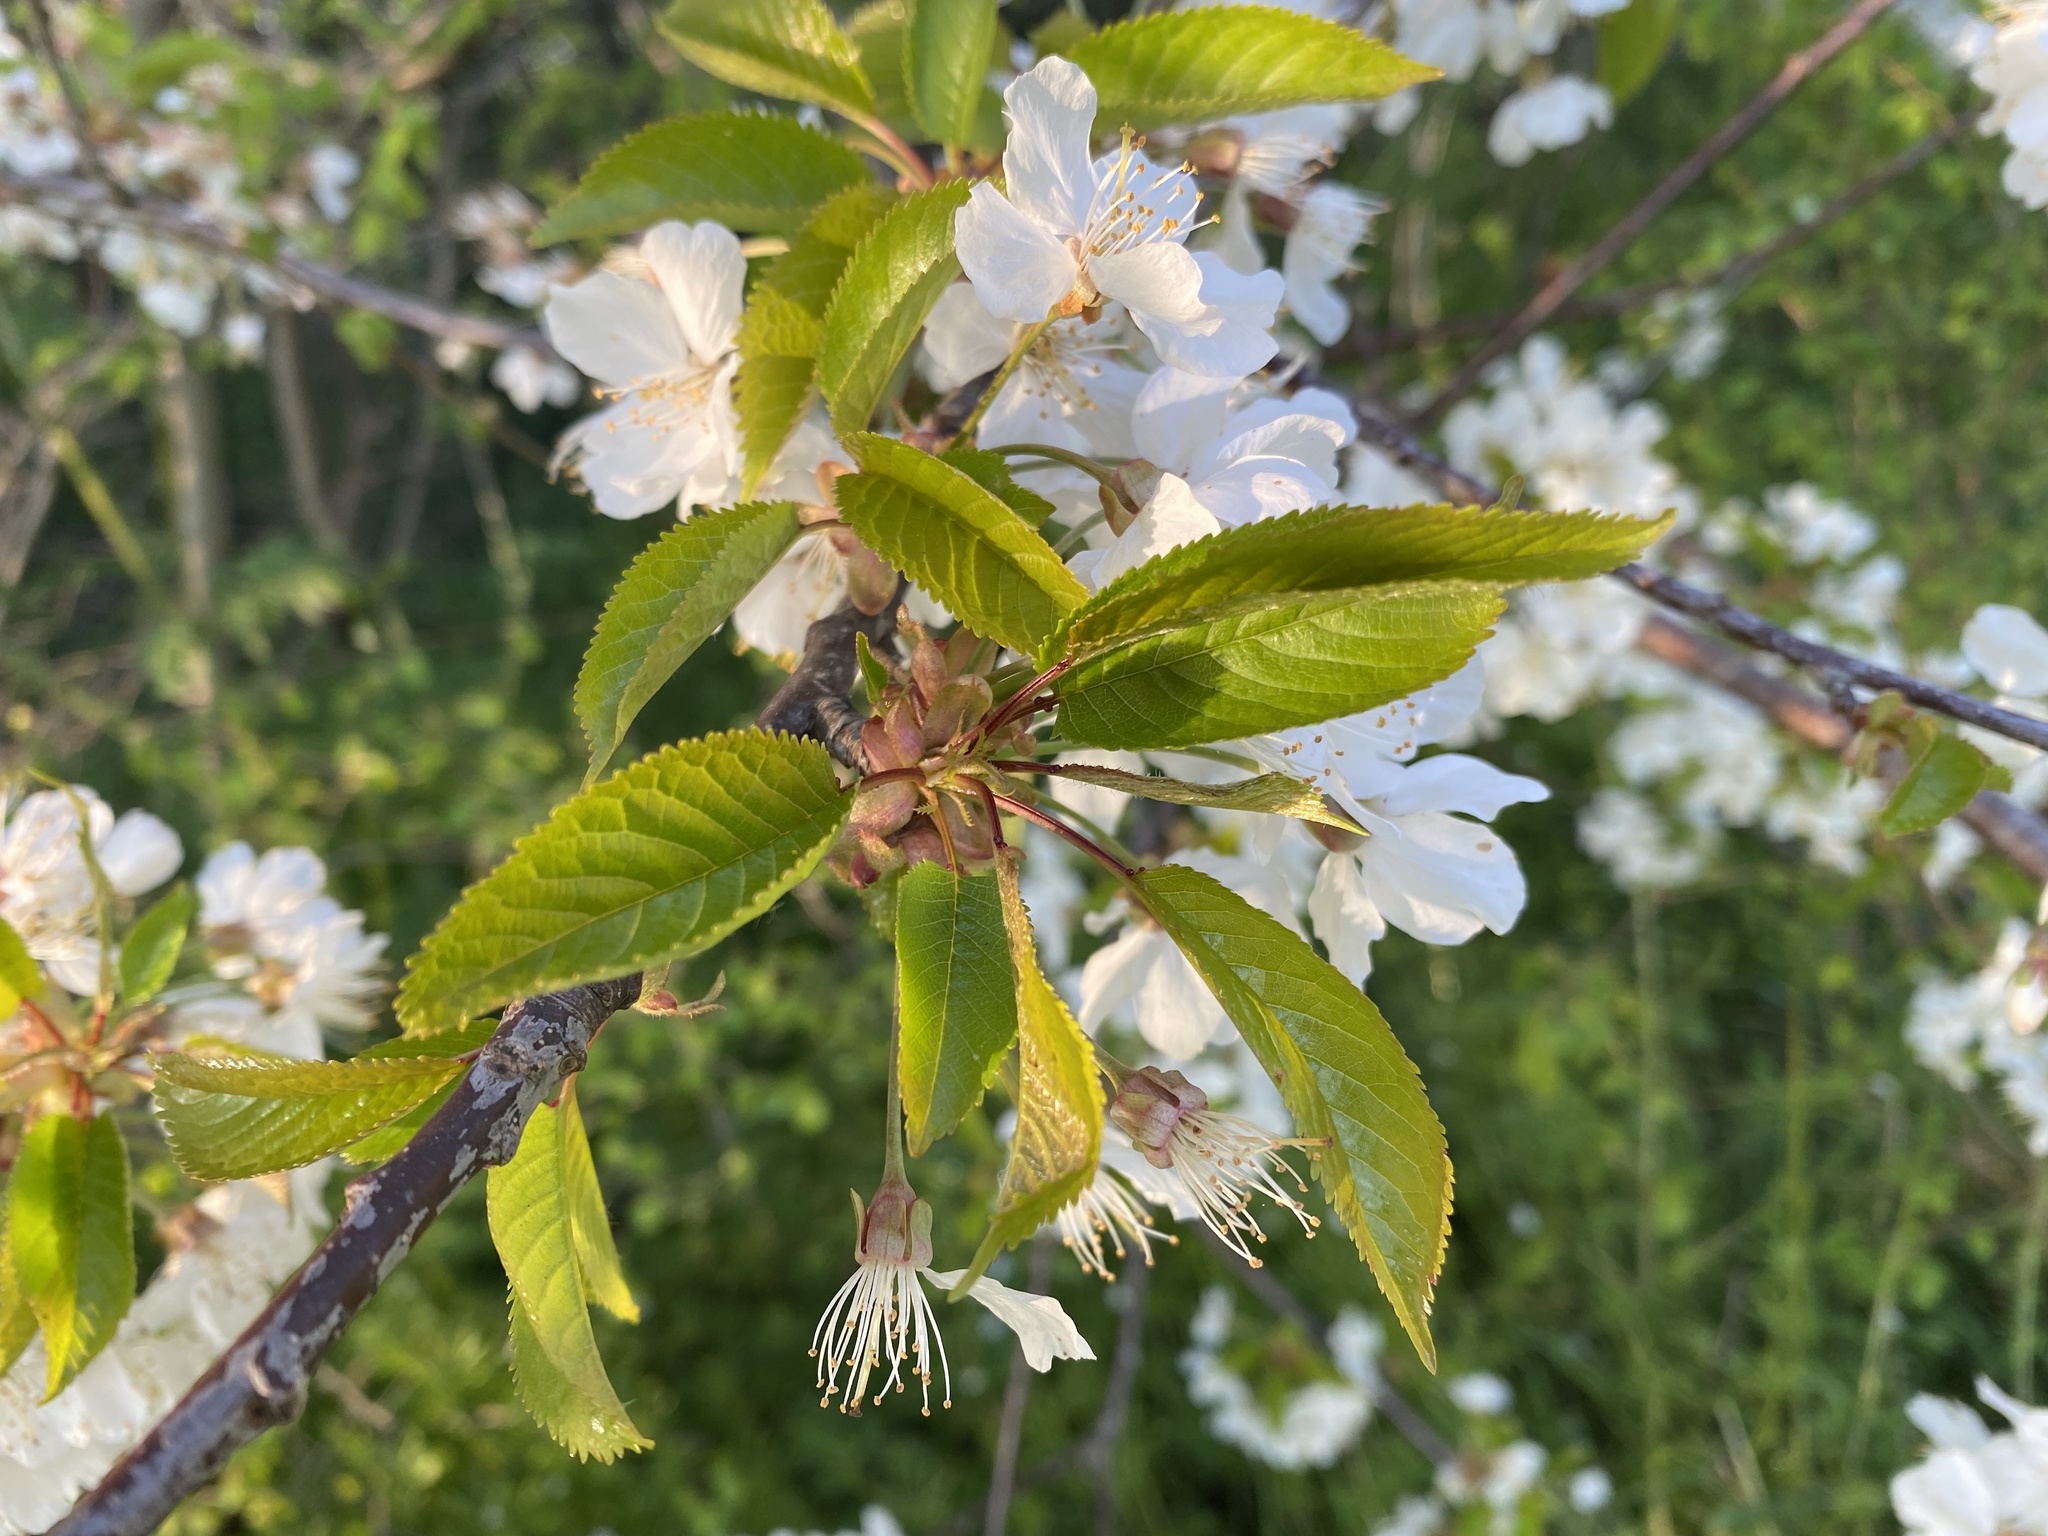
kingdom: Plantae
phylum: Tracheophyta
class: Magnoliopsida
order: Rosales
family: Rosaceae
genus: Prunus
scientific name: Prunus avium
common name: Sweet cherry
